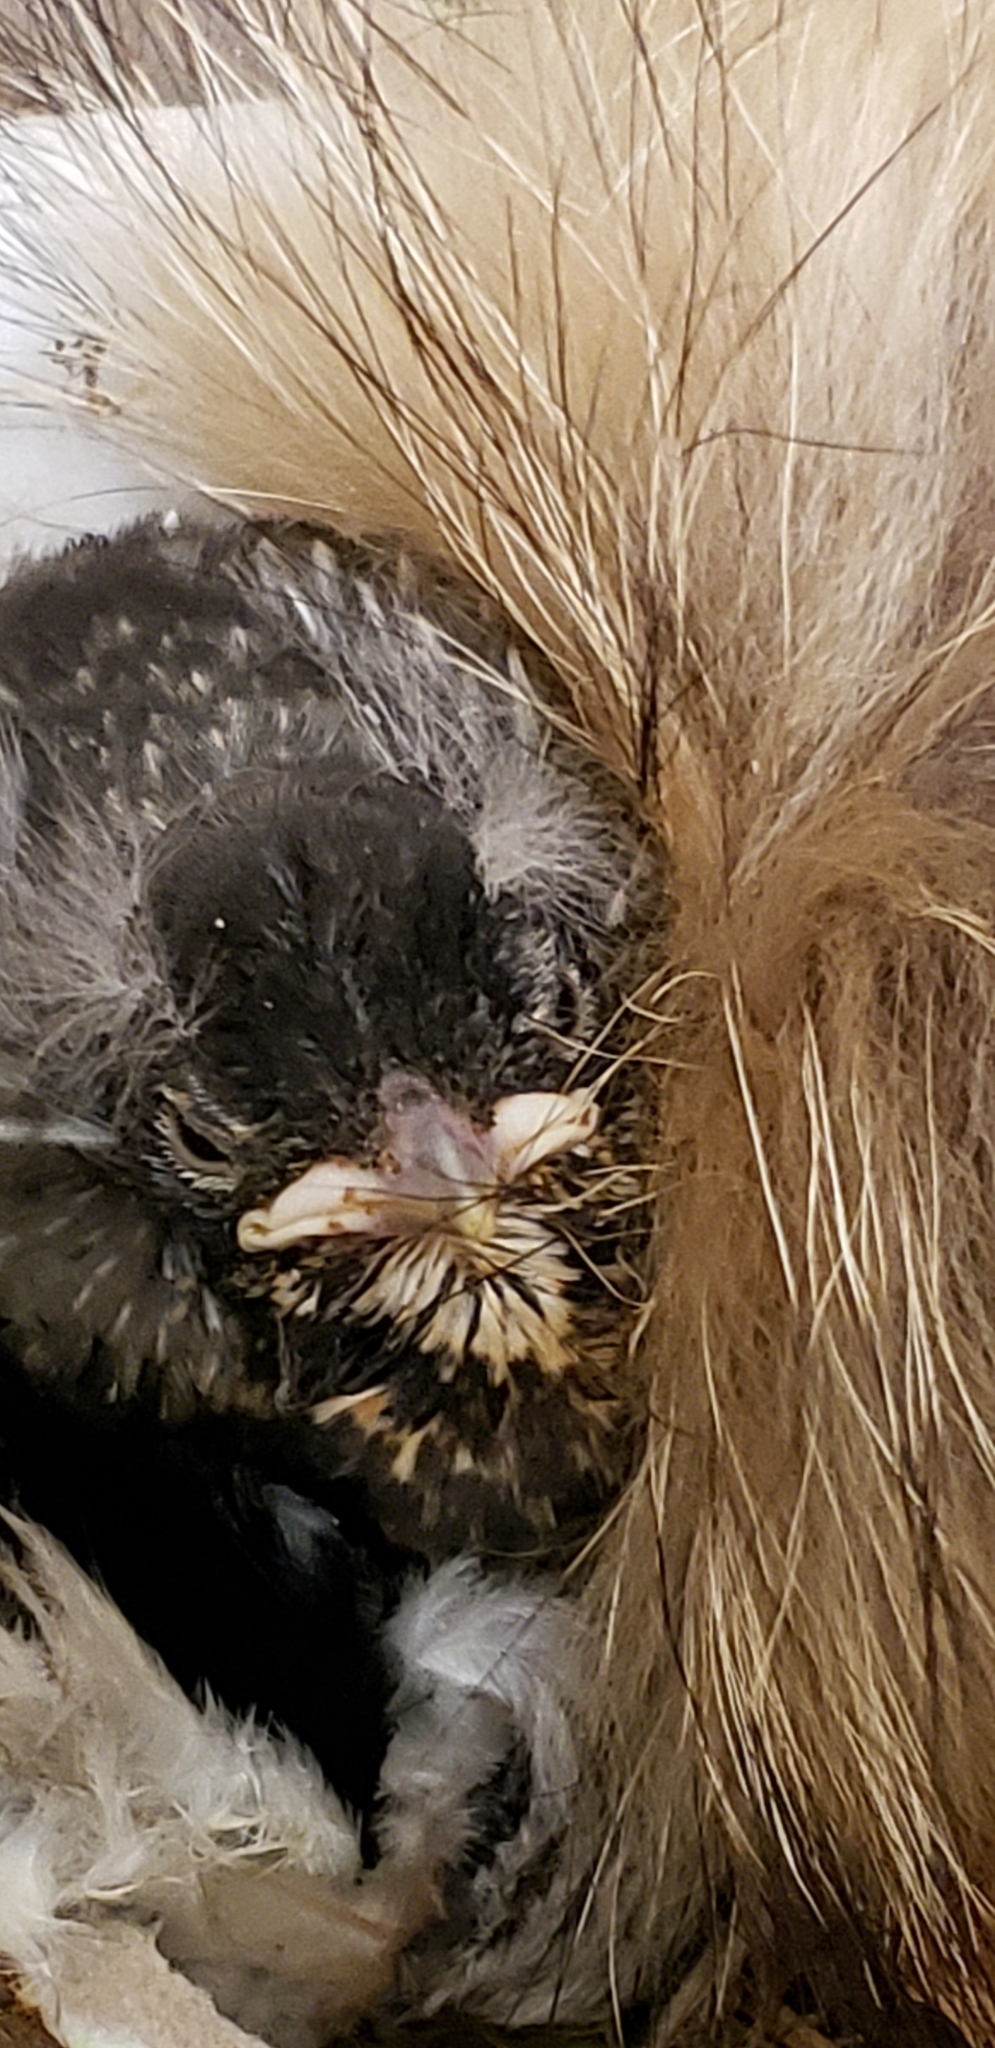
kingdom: Animalia
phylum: Chordata
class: Aves
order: Passeriformes
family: Turdidae
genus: Turdus
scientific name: Turdus migratorius
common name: American robin
